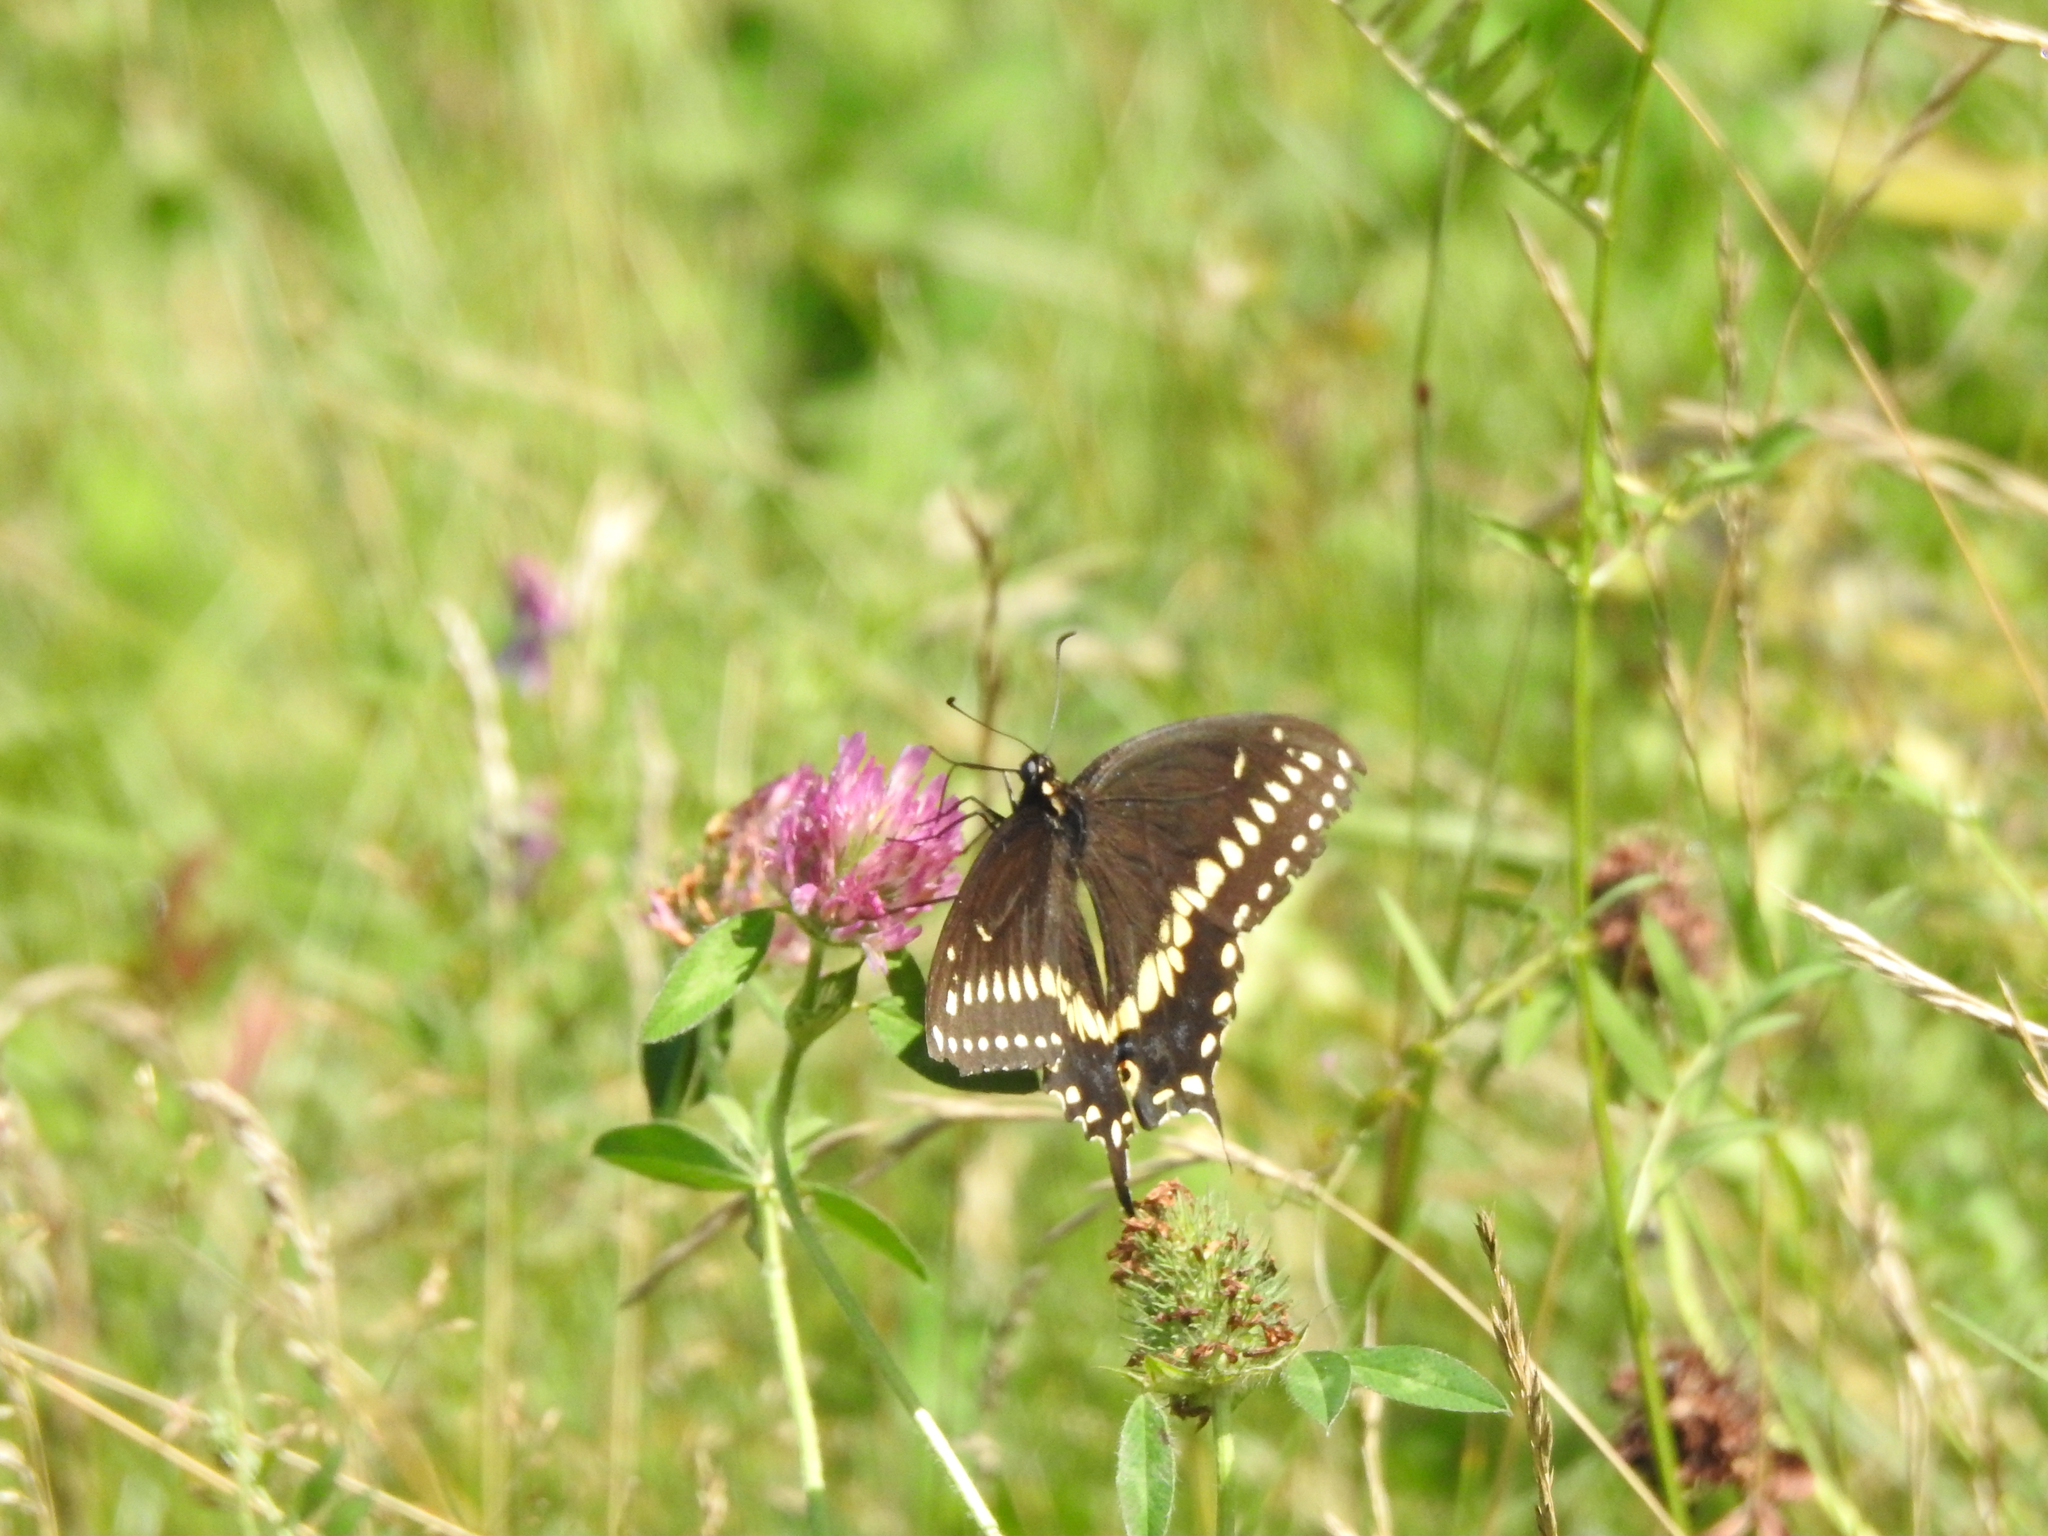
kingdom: Animalia
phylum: Arthropoda
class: Insecta
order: Lepidoptera
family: Papilionidae
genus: Papilio
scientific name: Papilio polyxenes
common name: Black swallowtail
